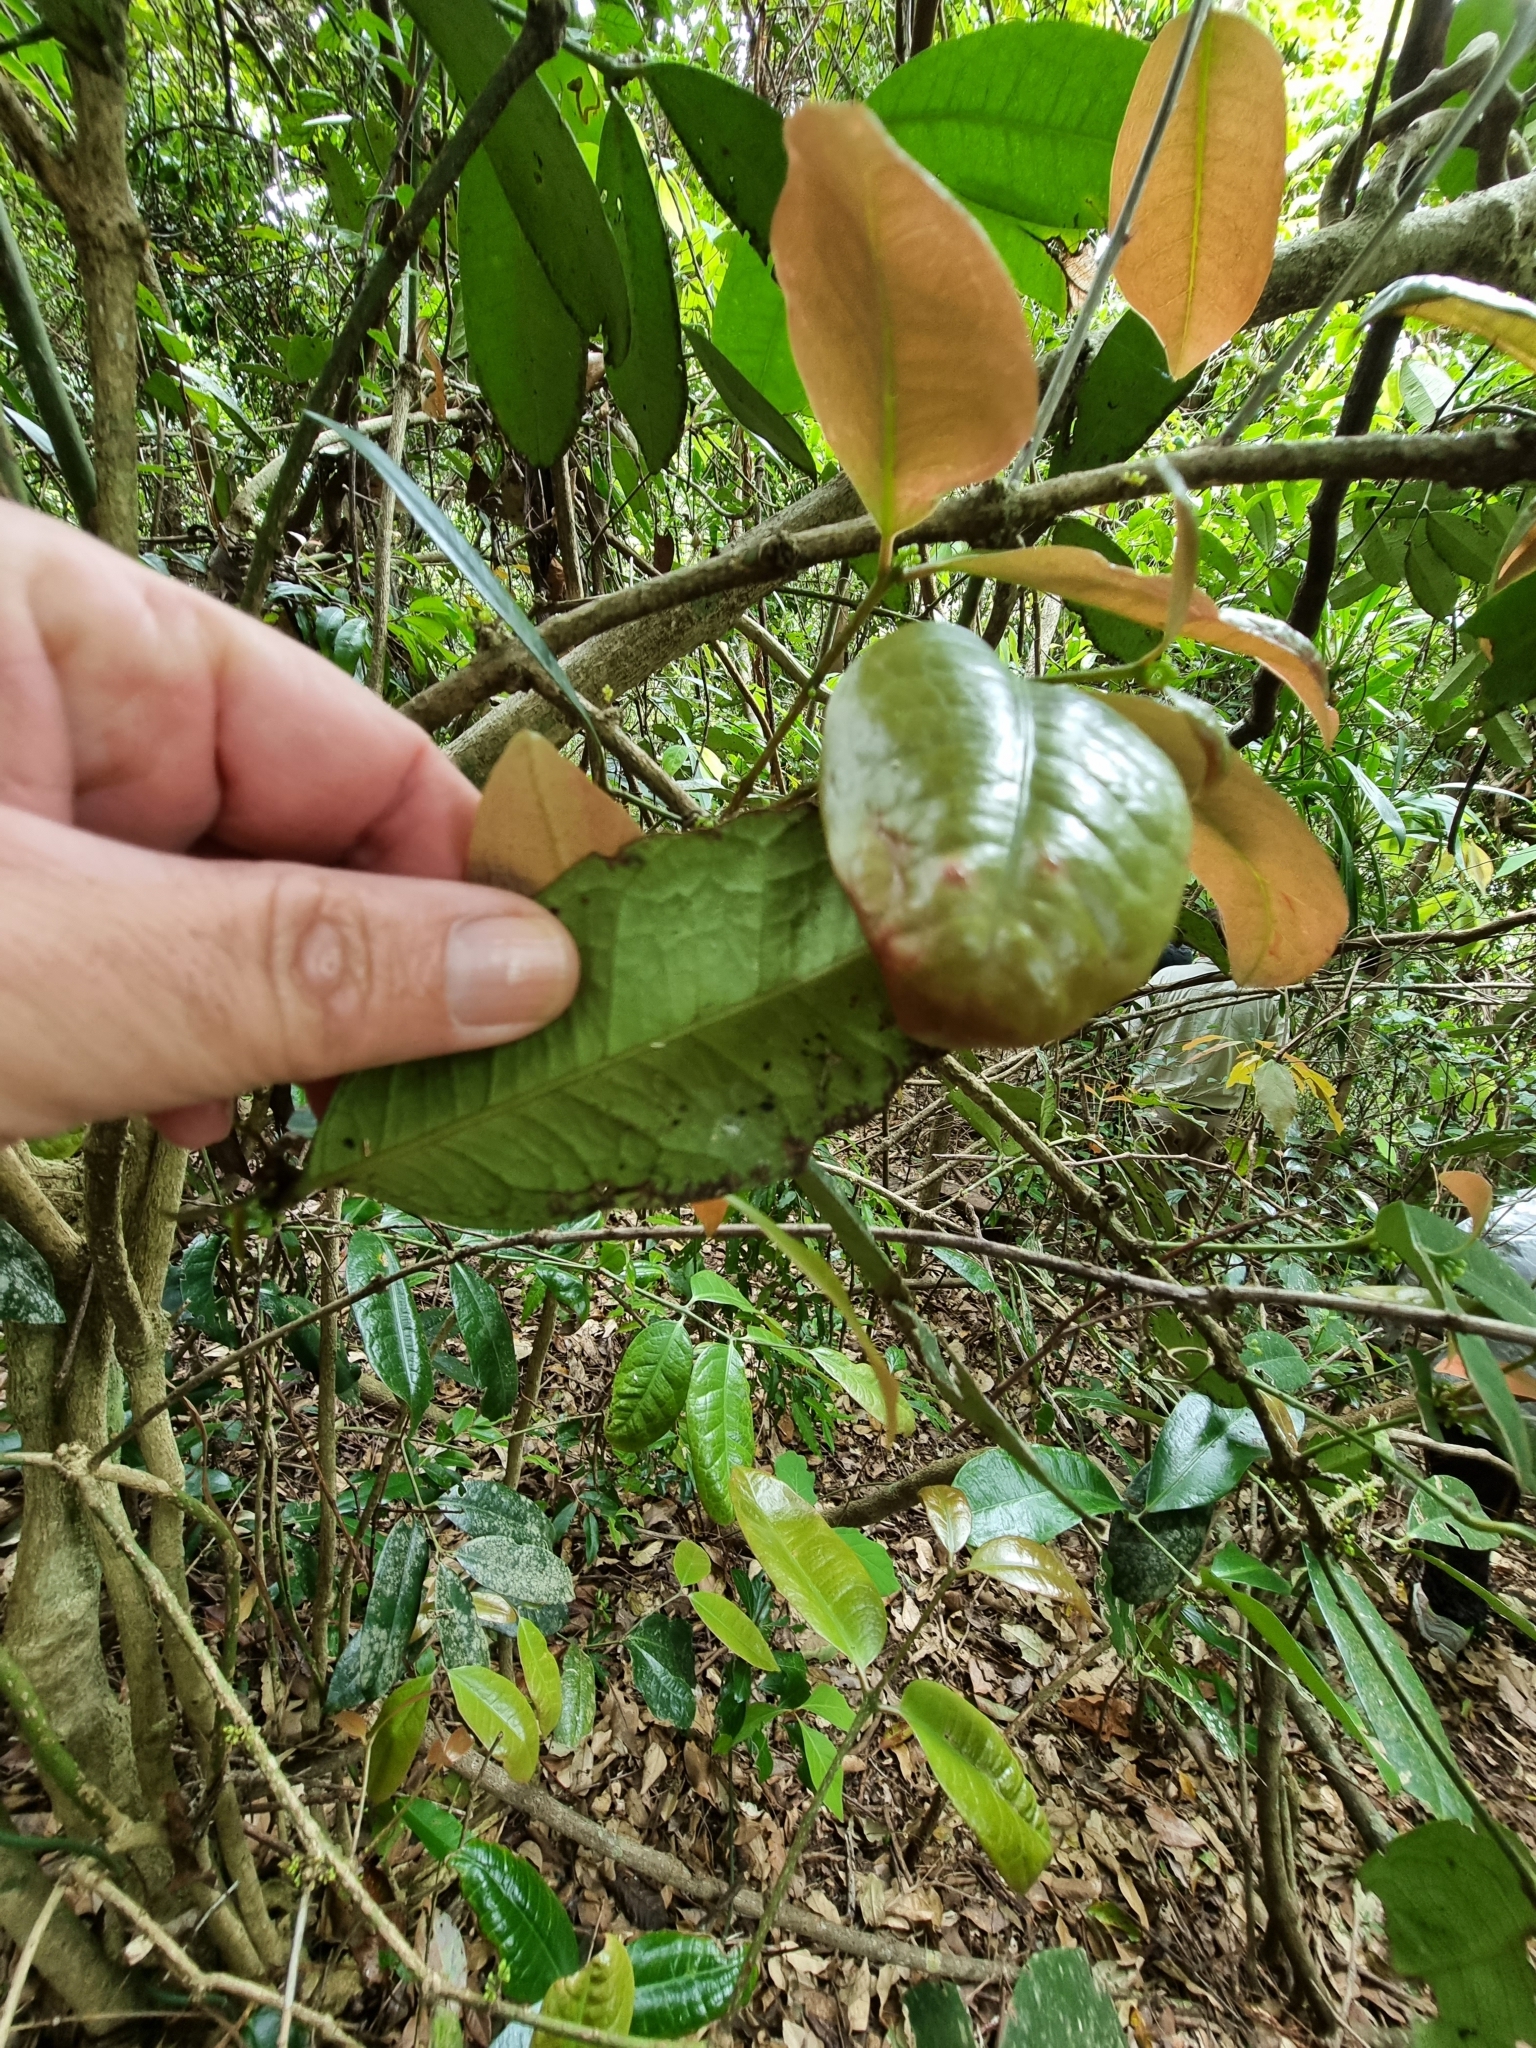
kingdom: Plantae
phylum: Tracheophyta
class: Magnoliopsida
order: Laurales
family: Monimiaceae
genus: Wilkiea
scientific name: Wilkiea macrophylla
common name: Large-leaved wilkiea
